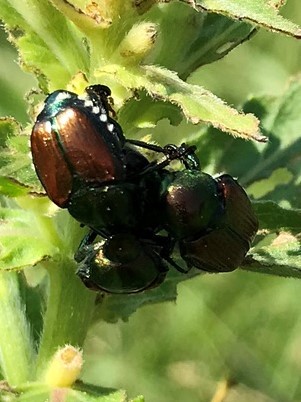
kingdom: Animalia
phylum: Arthropoda
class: Insecta
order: Coleoptera
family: Scarabaeidae
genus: Popillia
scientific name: Popillia japonica
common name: Japanese beetle
